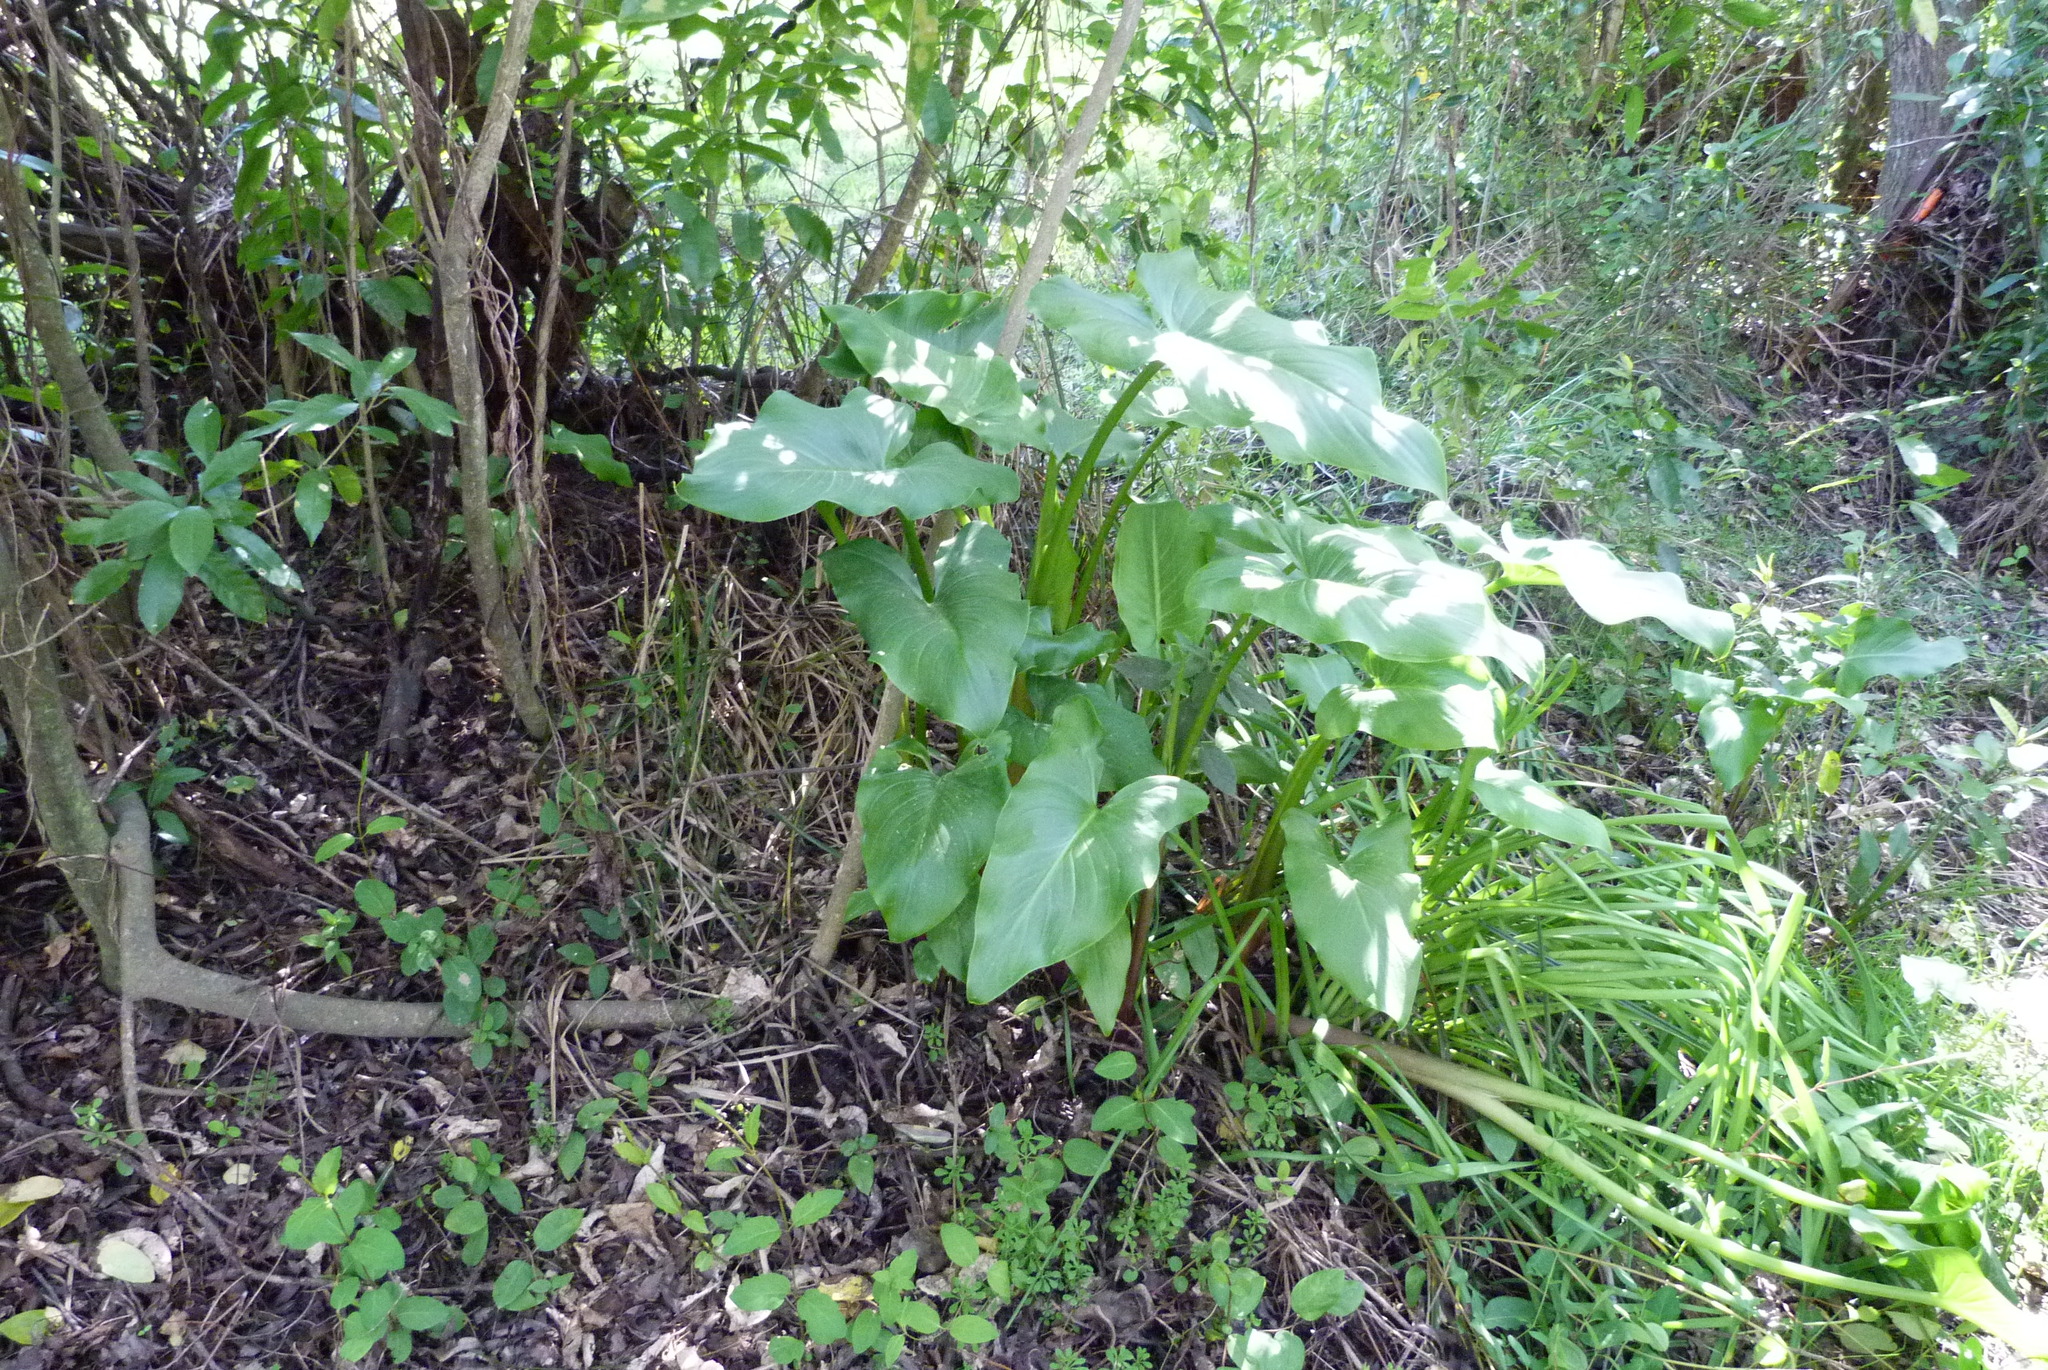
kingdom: Plantae
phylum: Tracheophyta
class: Liliopsida
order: Alismatales
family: Araceae
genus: Zantedeschia
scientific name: Zantedeschia aethiopica
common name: Altar-lily
